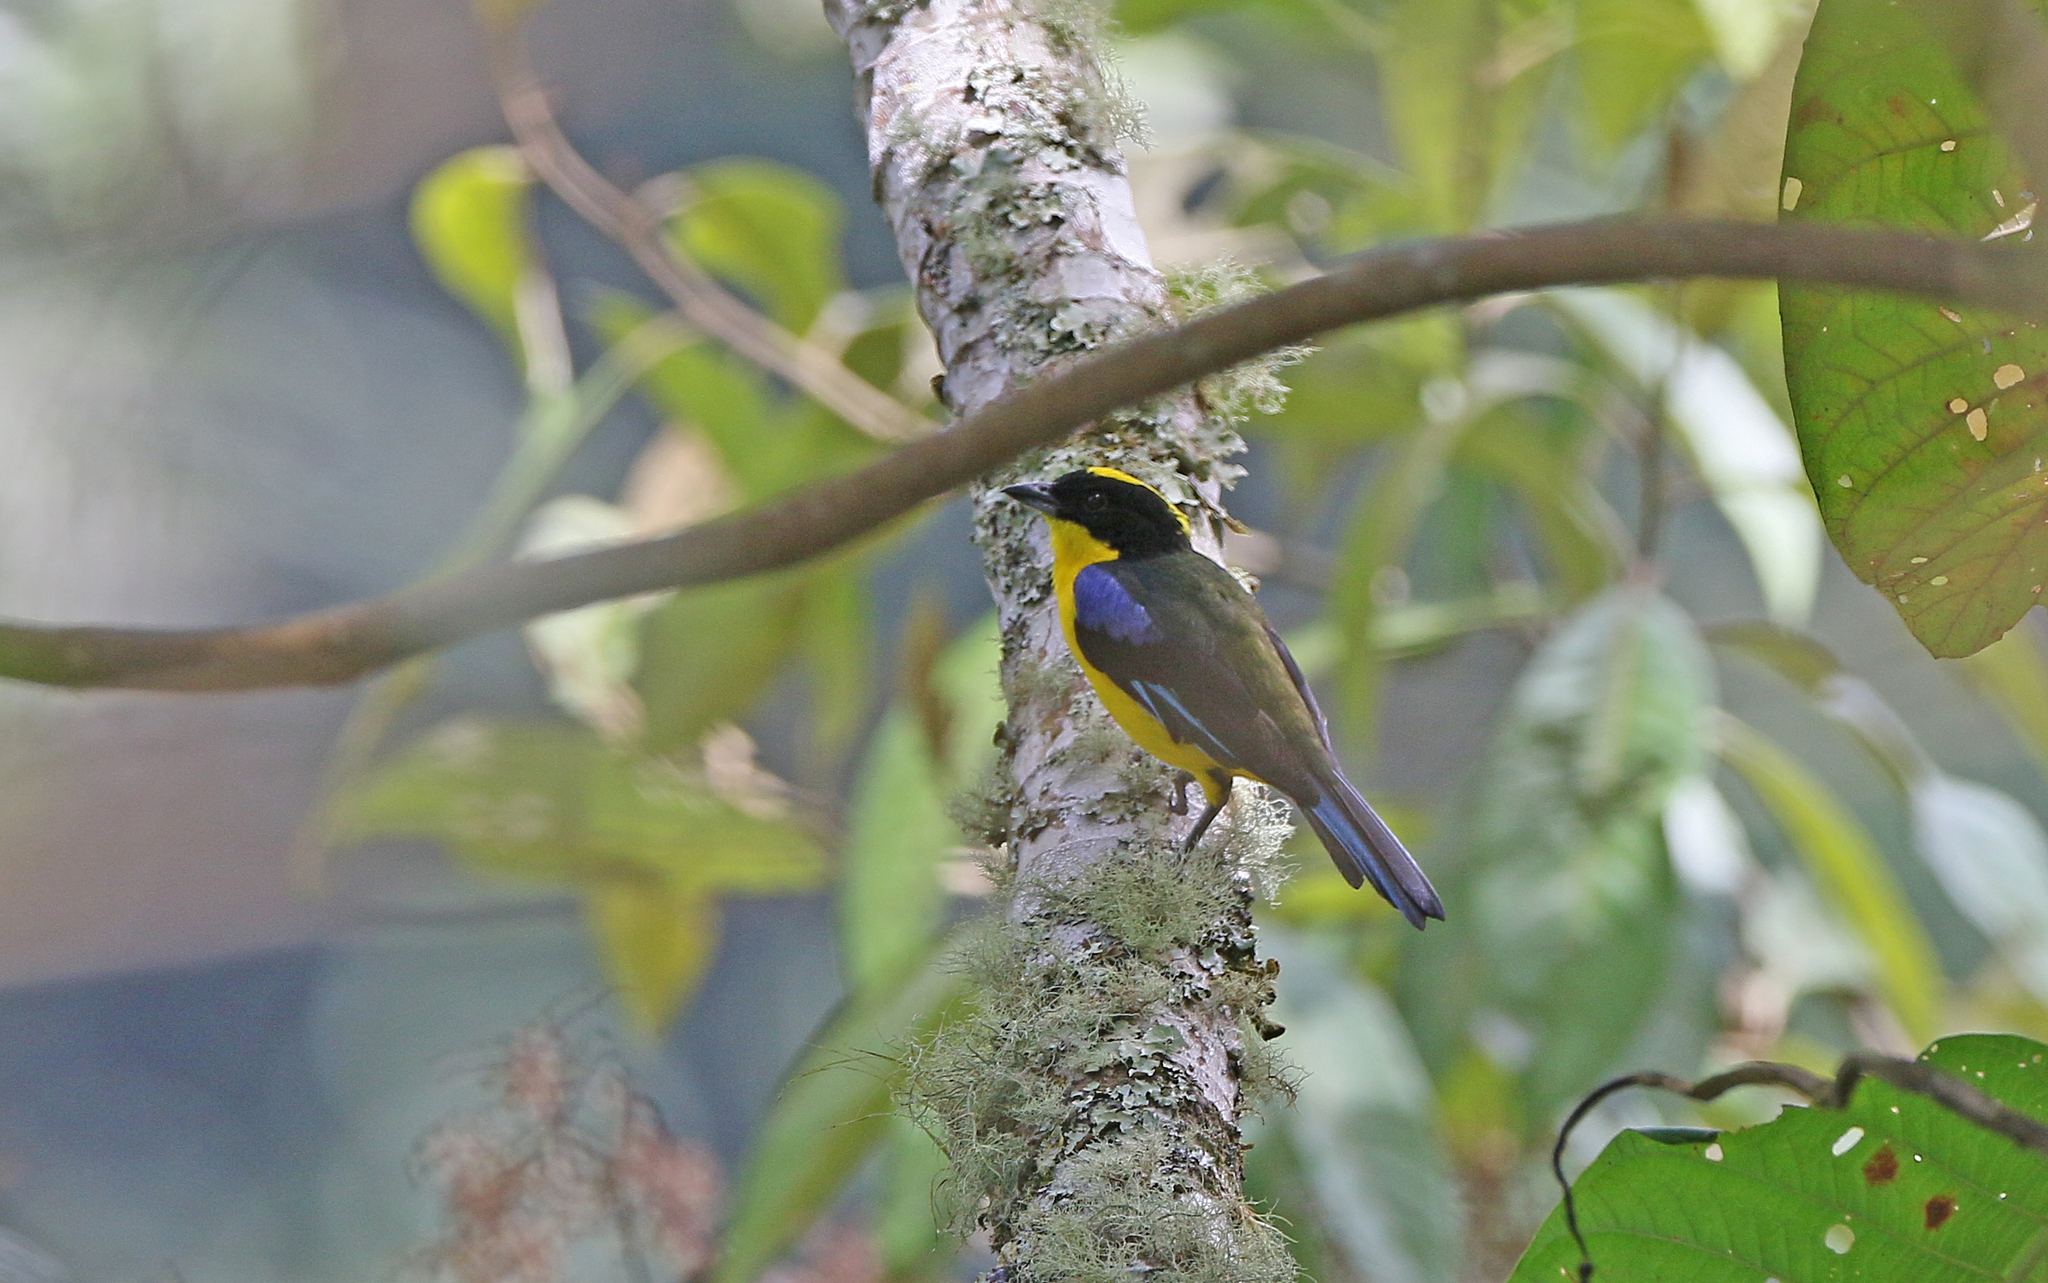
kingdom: Animalia
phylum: Chordata
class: Aves
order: Passeriformes
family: Thraupidae
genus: Anisognathus
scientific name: Anisognathus somptuosus
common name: Blue-winged mountain-tanager
